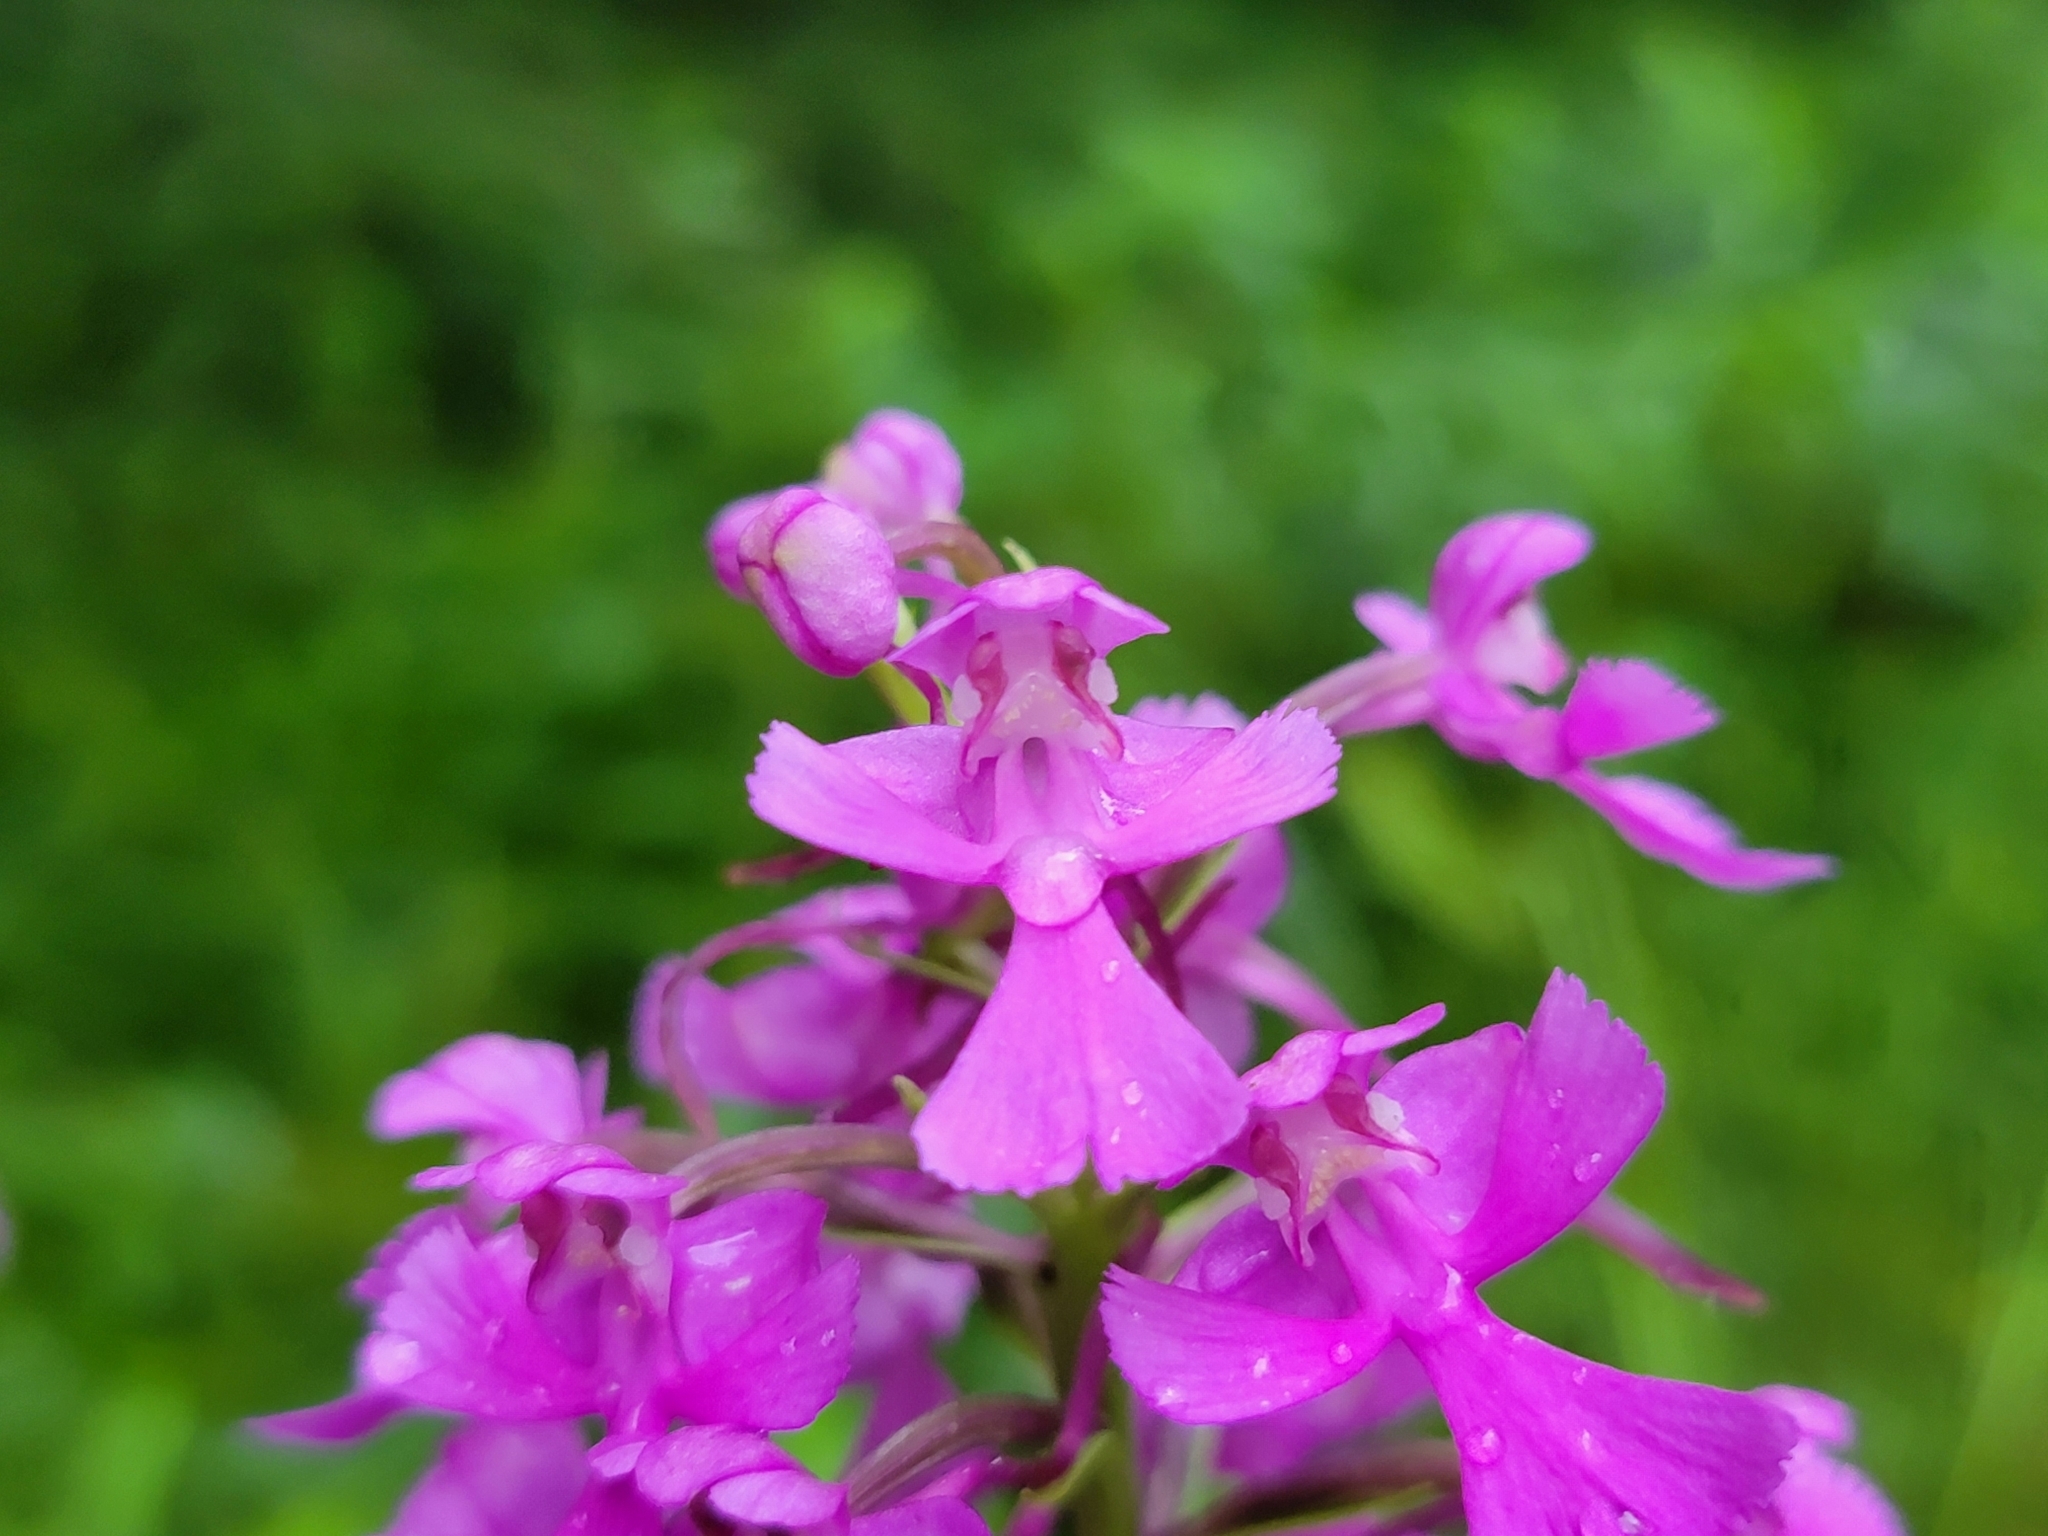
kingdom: Plantae
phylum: Tracheophyta
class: Liliopsida
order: Asparagales
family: Orchidaceae
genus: Platanthera
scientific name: Platanthera peramoena
